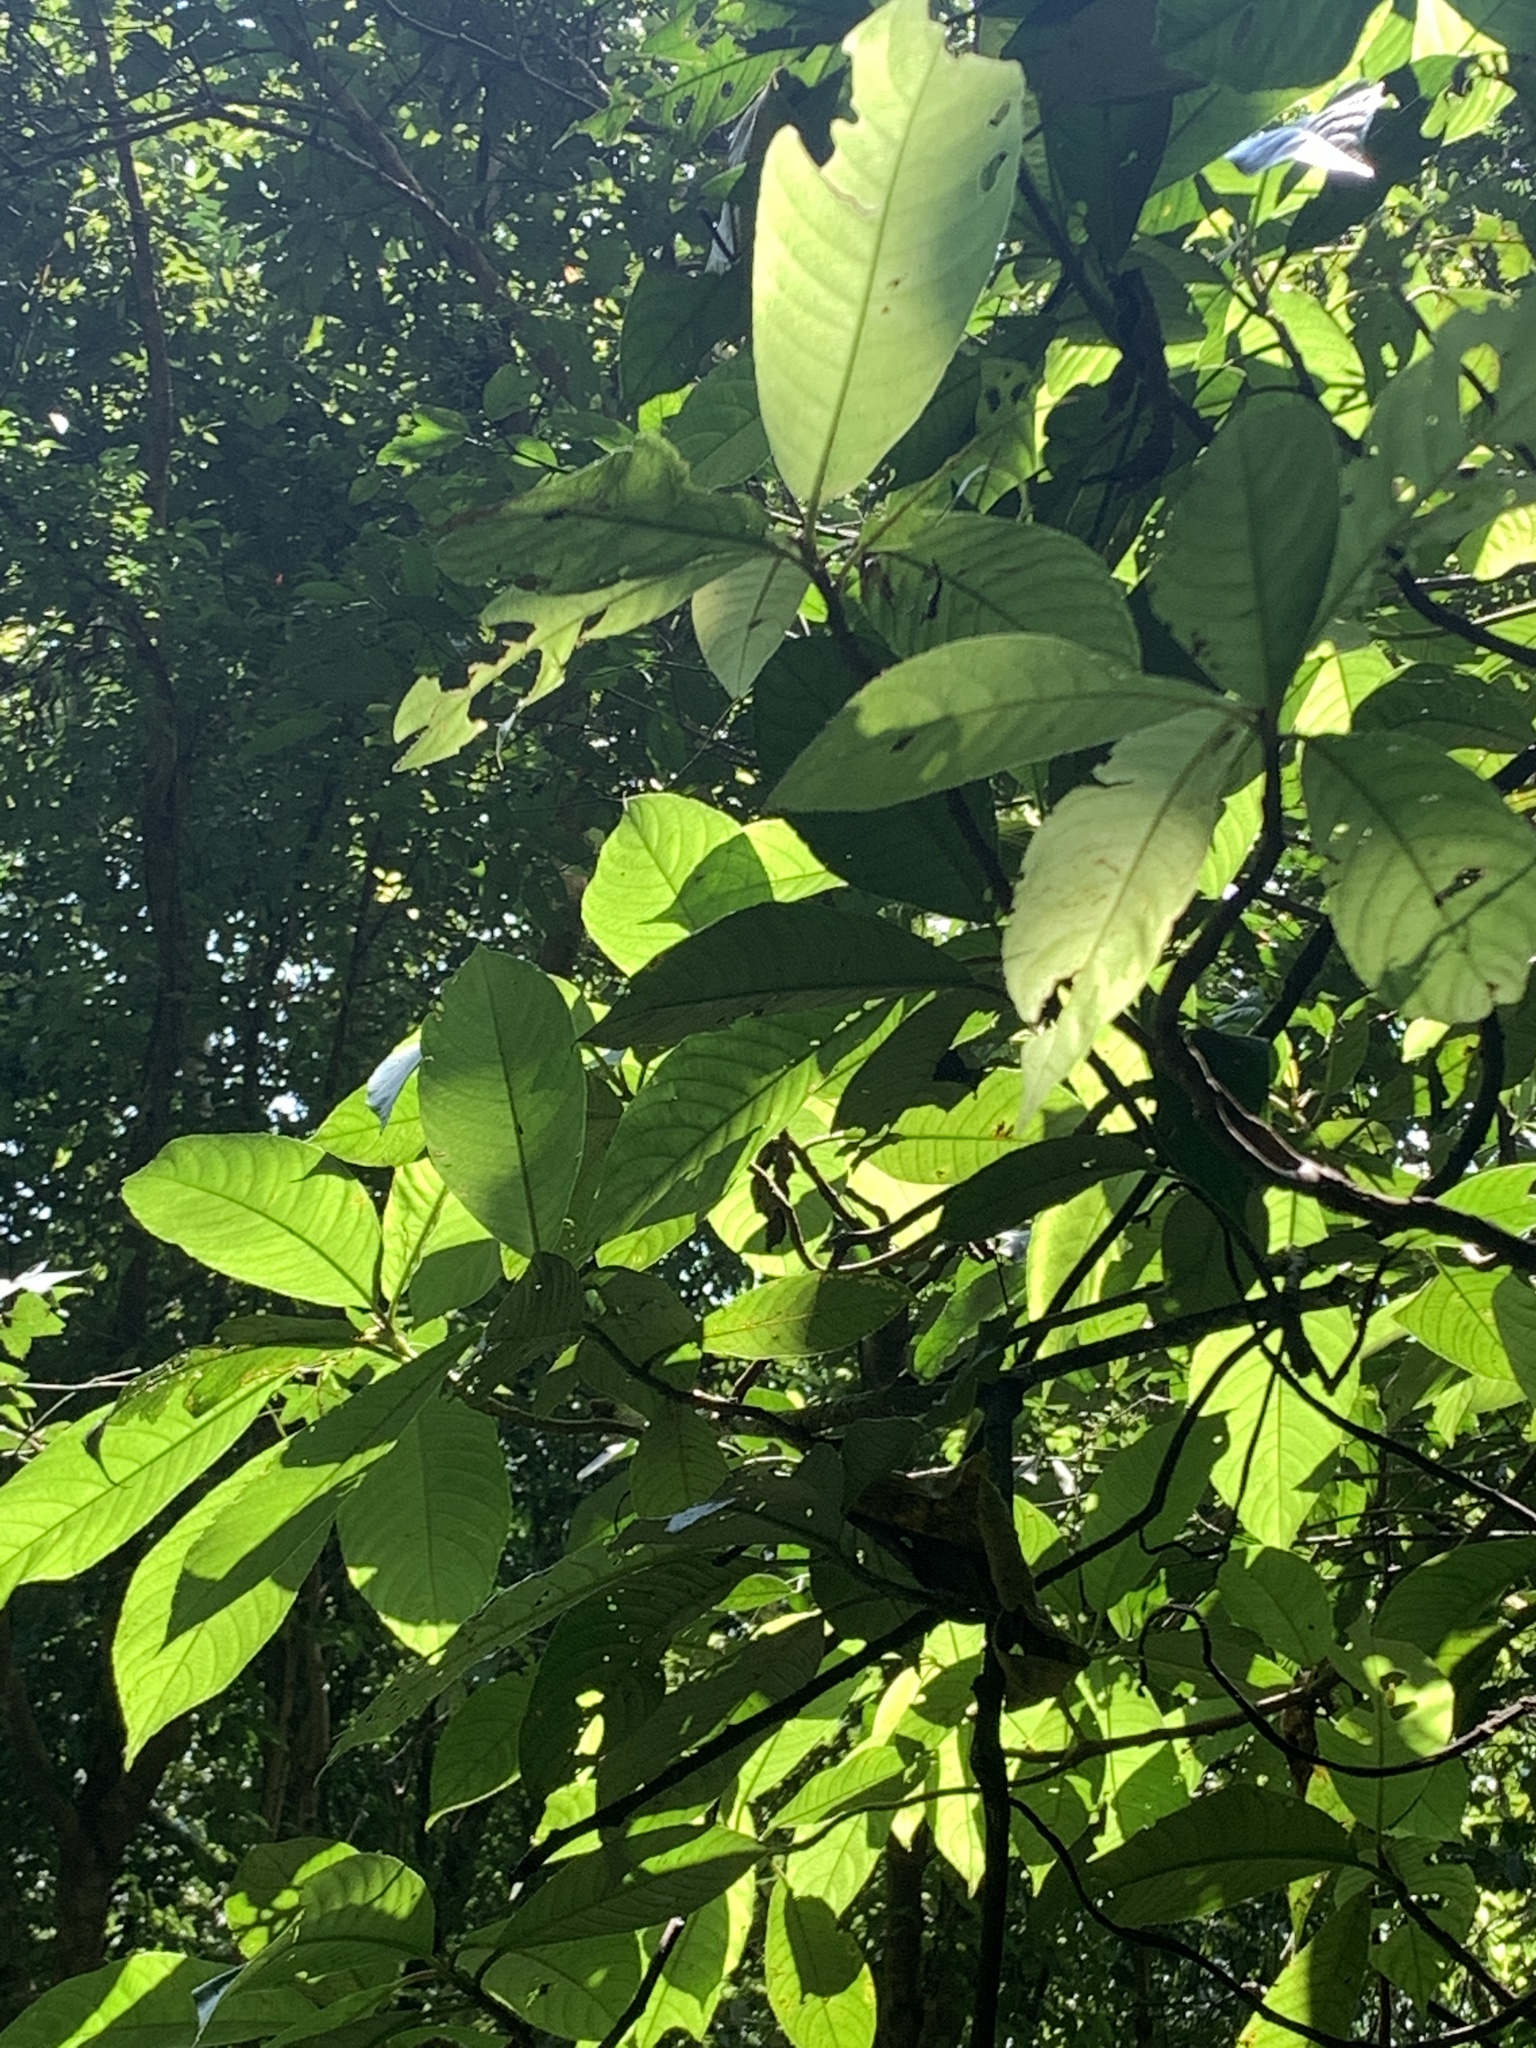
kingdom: Plantae
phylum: Tracheophyta
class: Magnoliopsida
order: Ericales
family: Actinidiaceae
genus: Saurauia
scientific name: Saurauia tristyla
